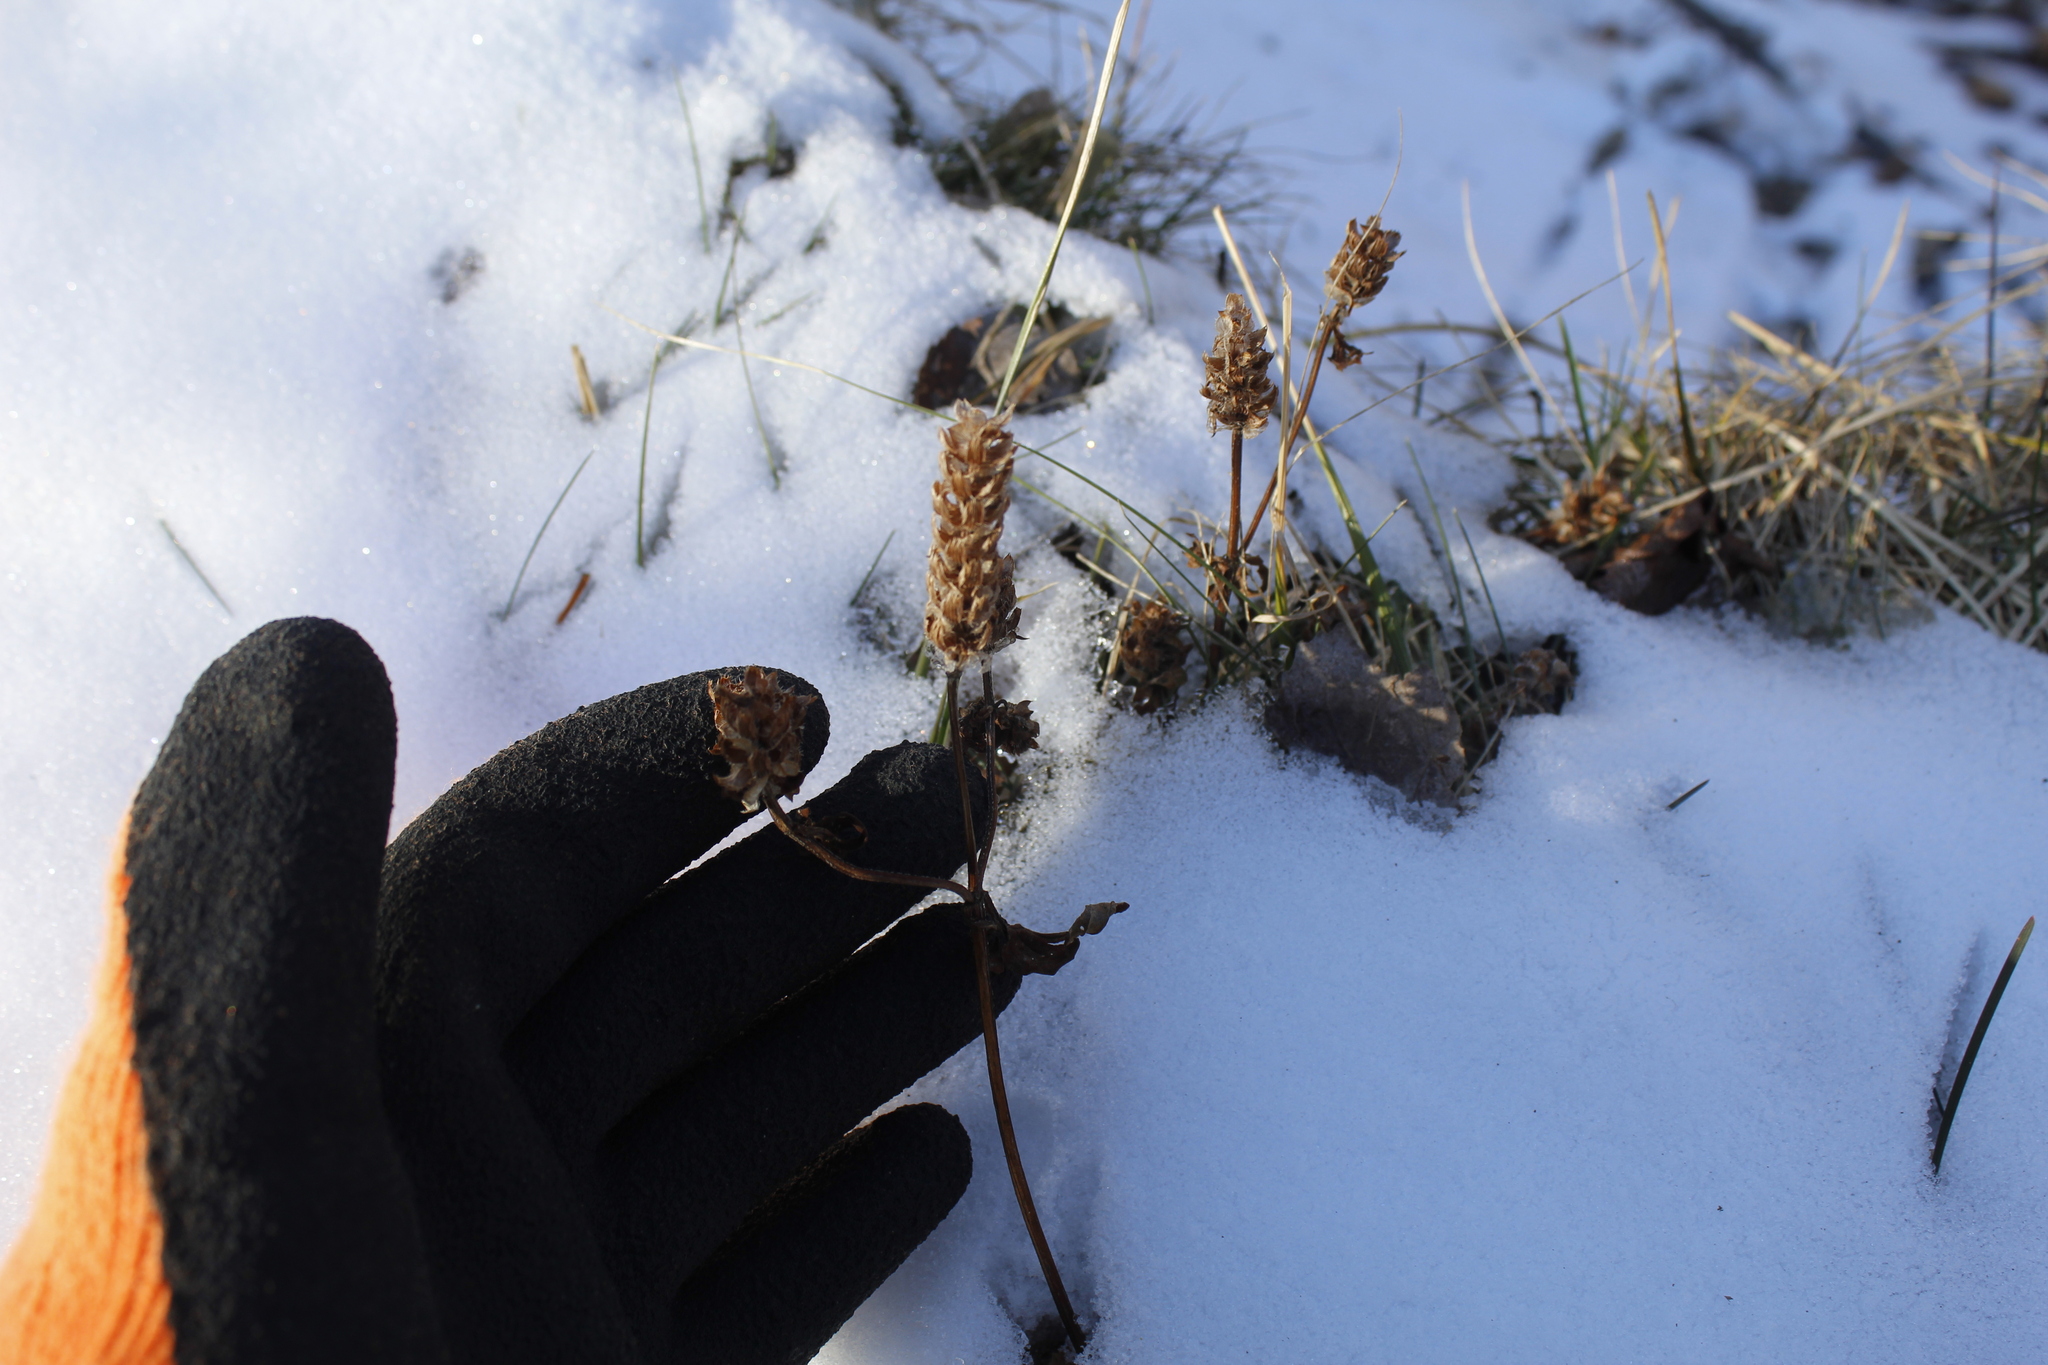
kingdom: Plantae
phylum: Tracheophyta
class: Magnoliopsida
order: Lamiales
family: Lamiaceae
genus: Prunella
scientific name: Prunella vulgaris
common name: Heal-all
